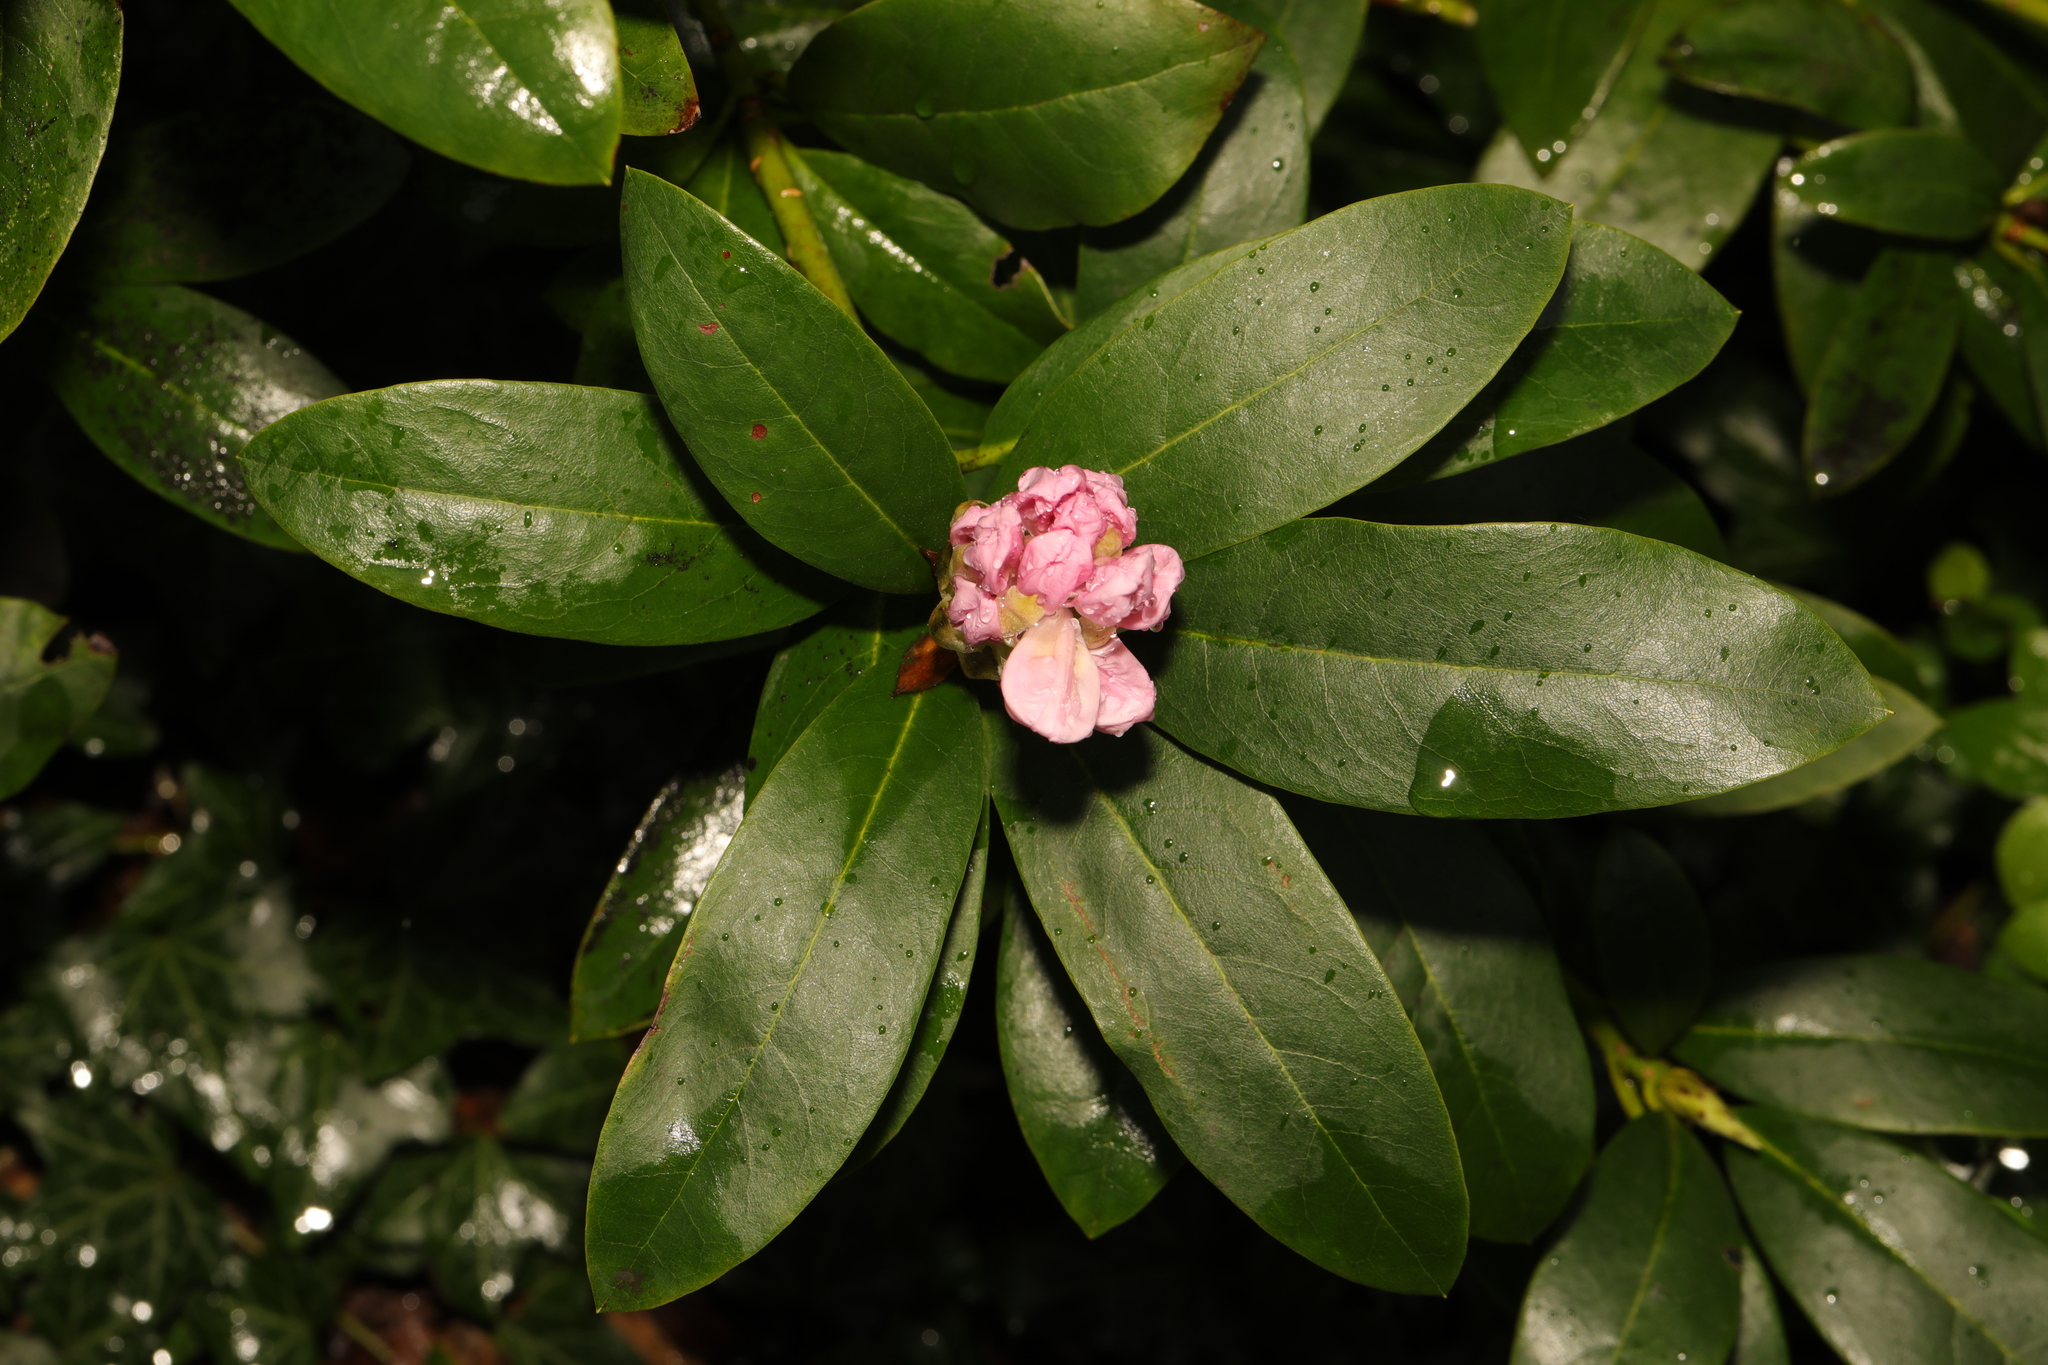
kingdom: Plantae
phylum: Tracheophyta
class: Magnoliopsida
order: Ericales
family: Ericaceae
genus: Rhododendron
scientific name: Rhododendron ponticum
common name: Rhododendron
